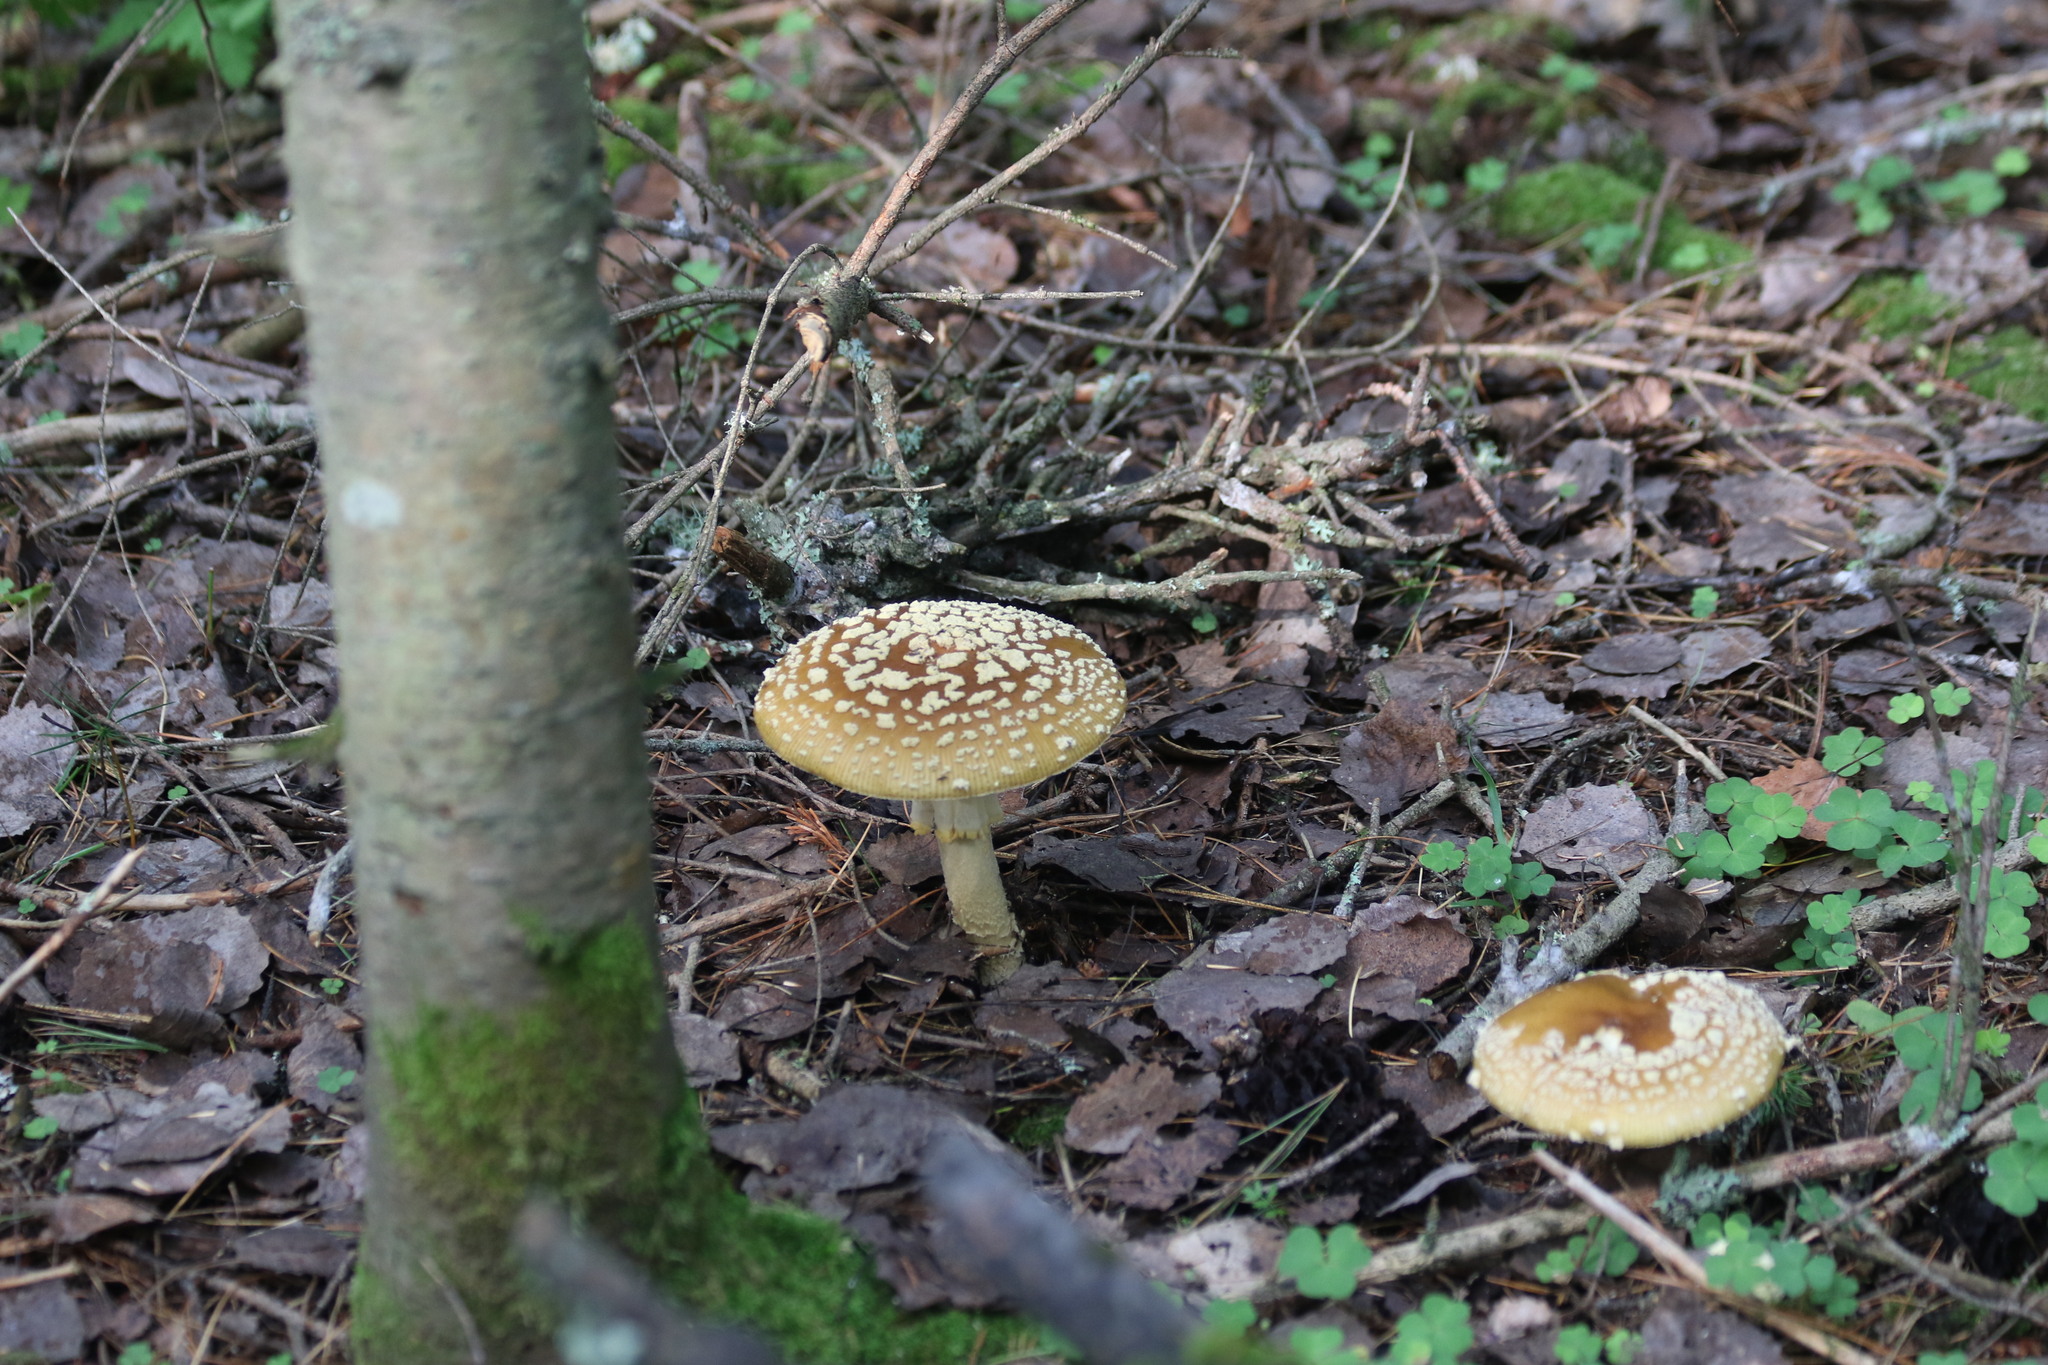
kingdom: Fungi
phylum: Basidiomycota
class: Agaricomycetes
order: Agaricales
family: Amanitaceae
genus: Amanita
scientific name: Amanita regalis
